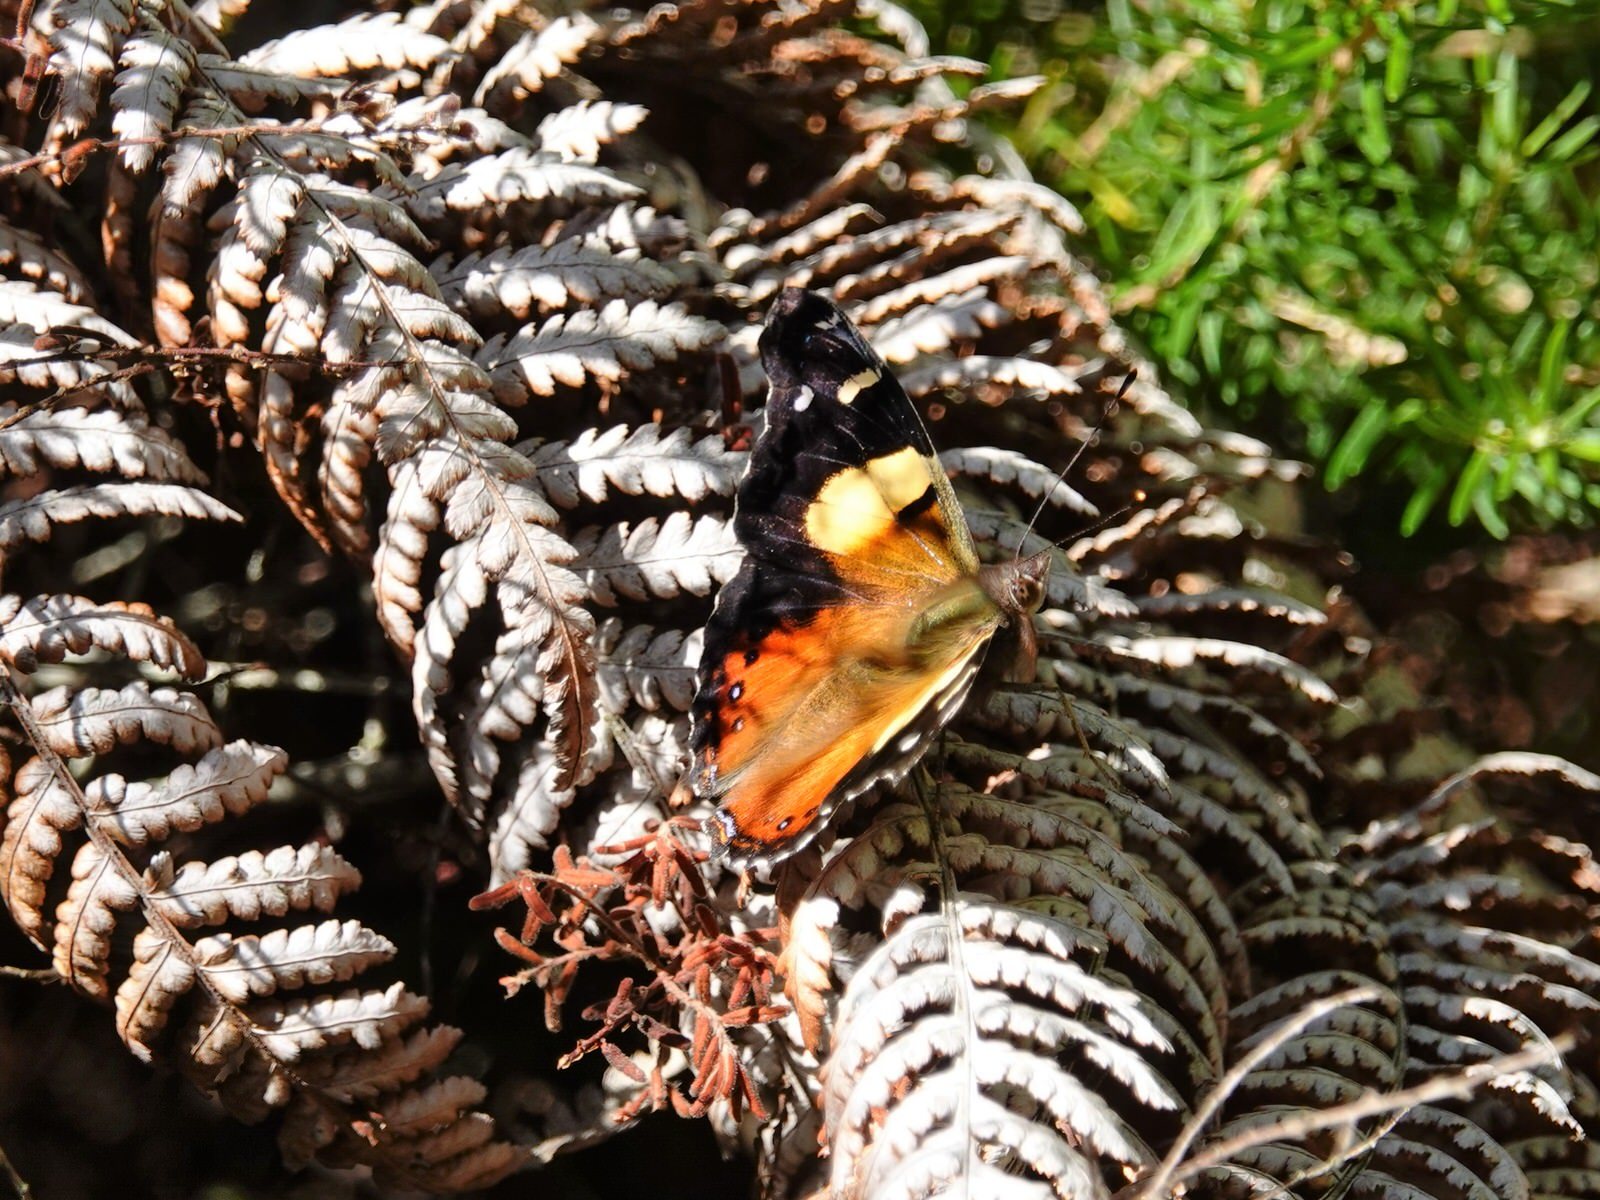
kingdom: Animalia
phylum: Arthropoda
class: Insecta
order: Lepidoptera
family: Nymphalidae
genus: Vanessa
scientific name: Vanessa itea
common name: Yellow admiral
